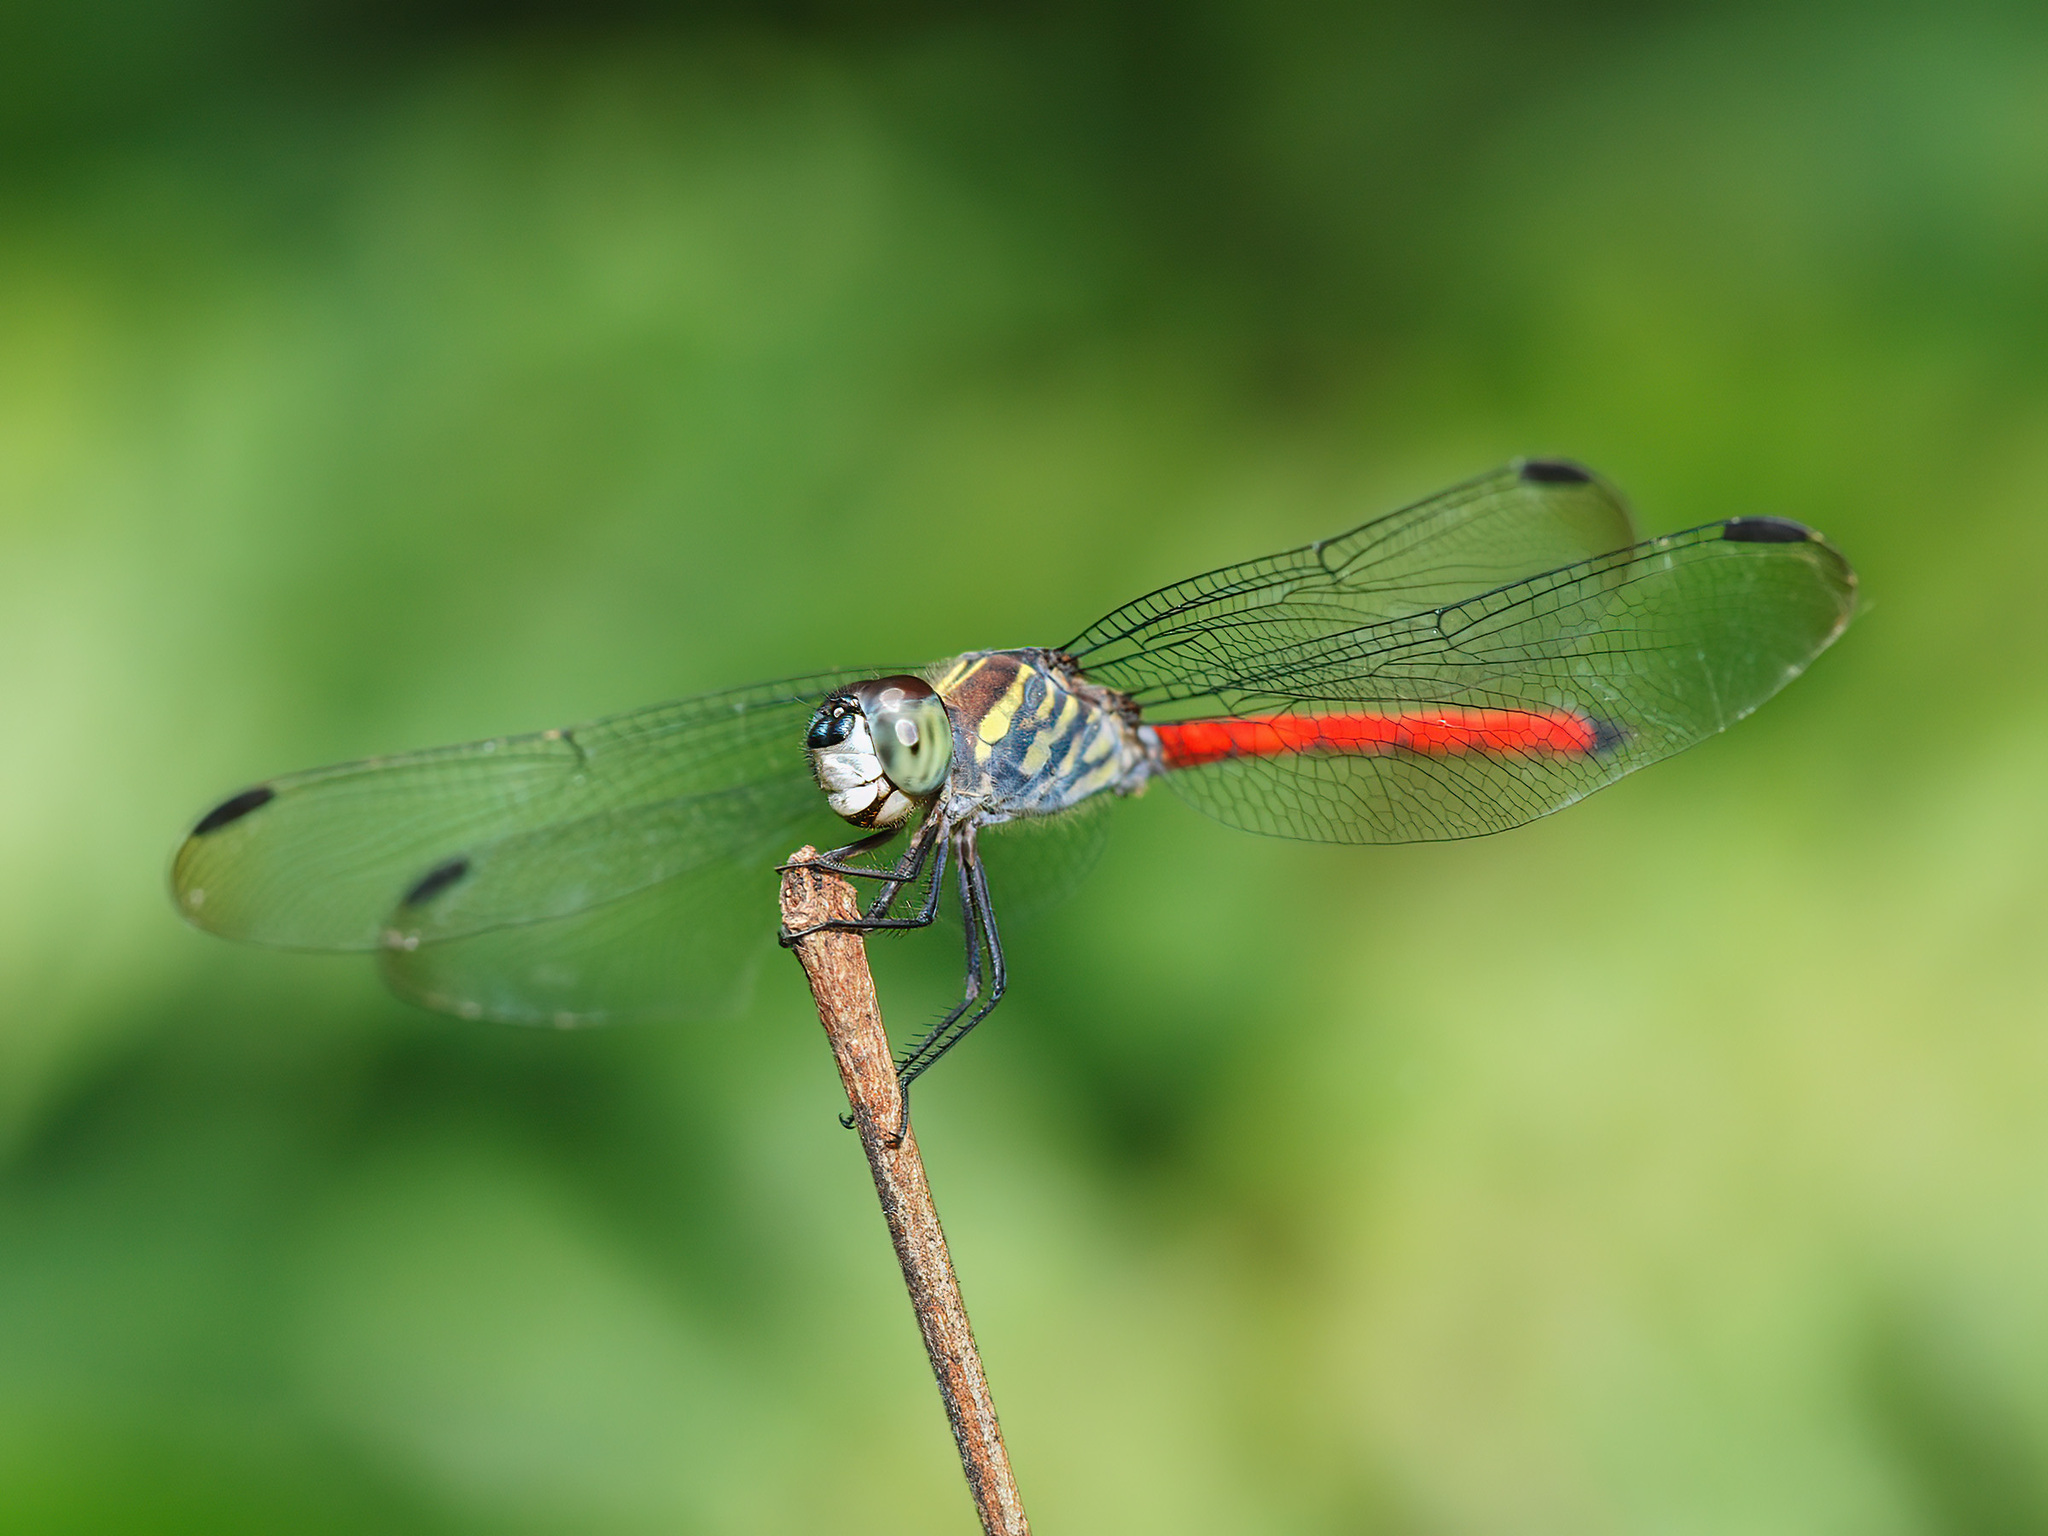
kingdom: Animalia
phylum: Arthropoda
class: Insecta
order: Odonata
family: Libellulidae
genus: Lathrecista
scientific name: Lathrecista asiatica
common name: Scarlet grenadier
